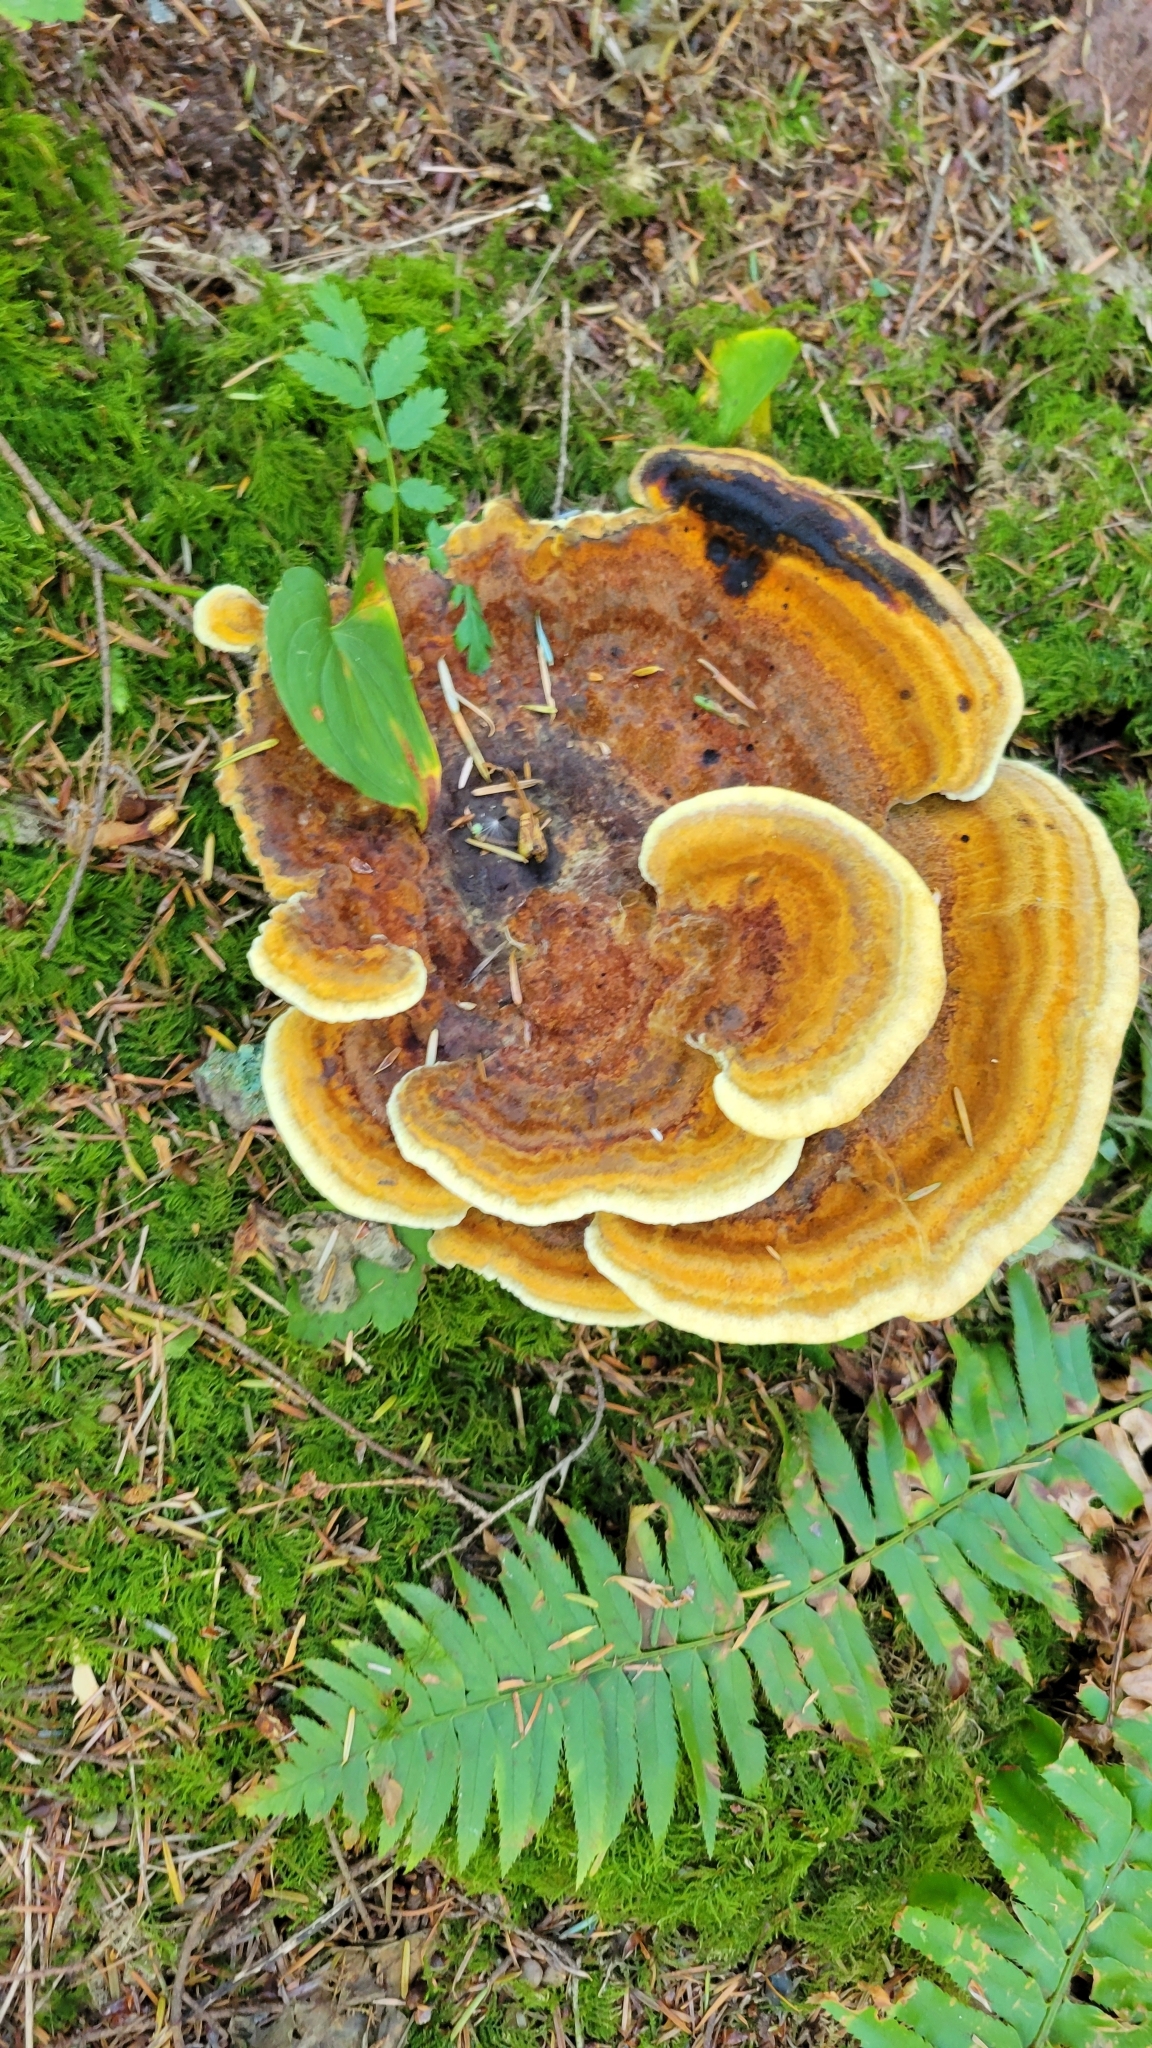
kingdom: Fungi
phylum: Basidiomycota
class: Agaricomycetes
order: Polyporales
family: Laetiporaceae
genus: Phaeolus
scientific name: Phaeolus schweinitzii
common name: Dyer's mazegill
